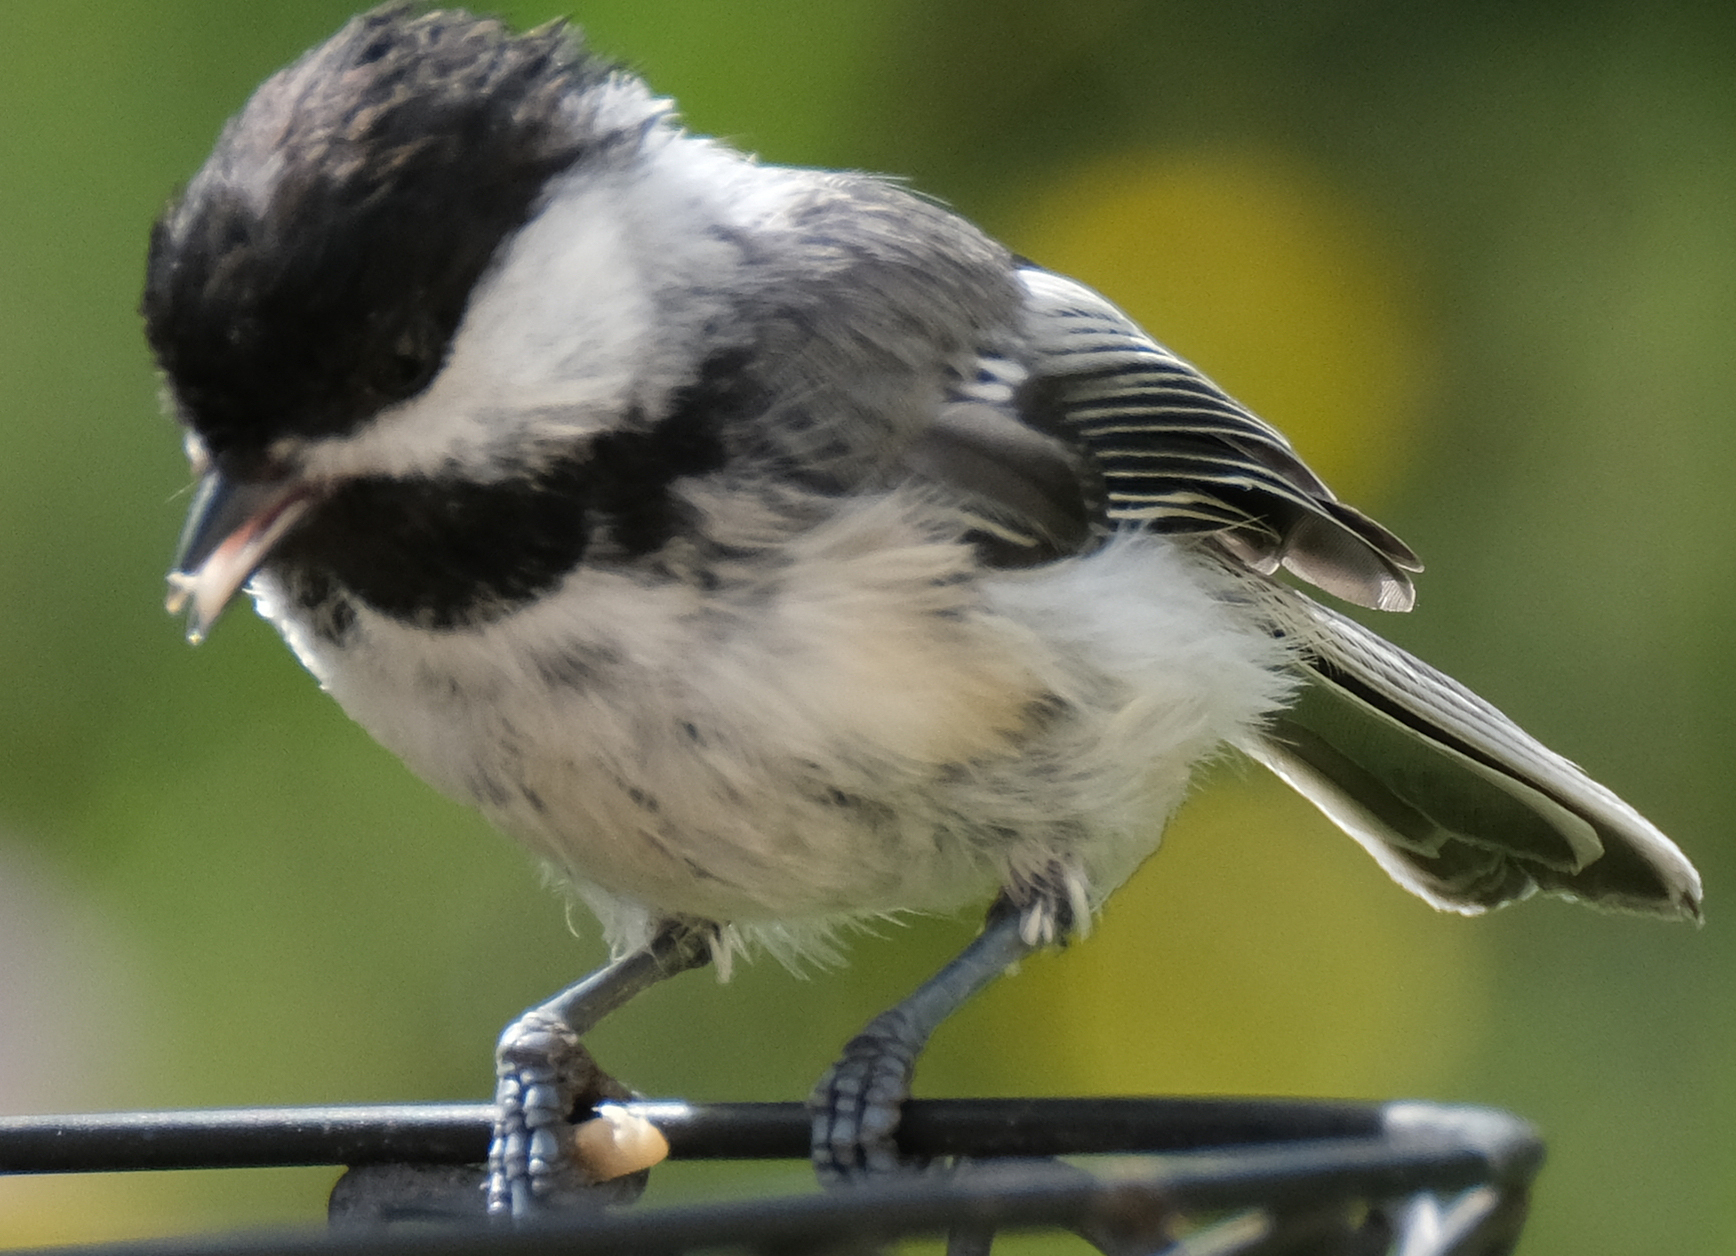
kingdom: Animalia
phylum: Chordata
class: Aves
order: Passeriformes
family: Paridae
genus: Poecile
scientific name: Poecile atricapillus
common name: Black-capped chickadee
